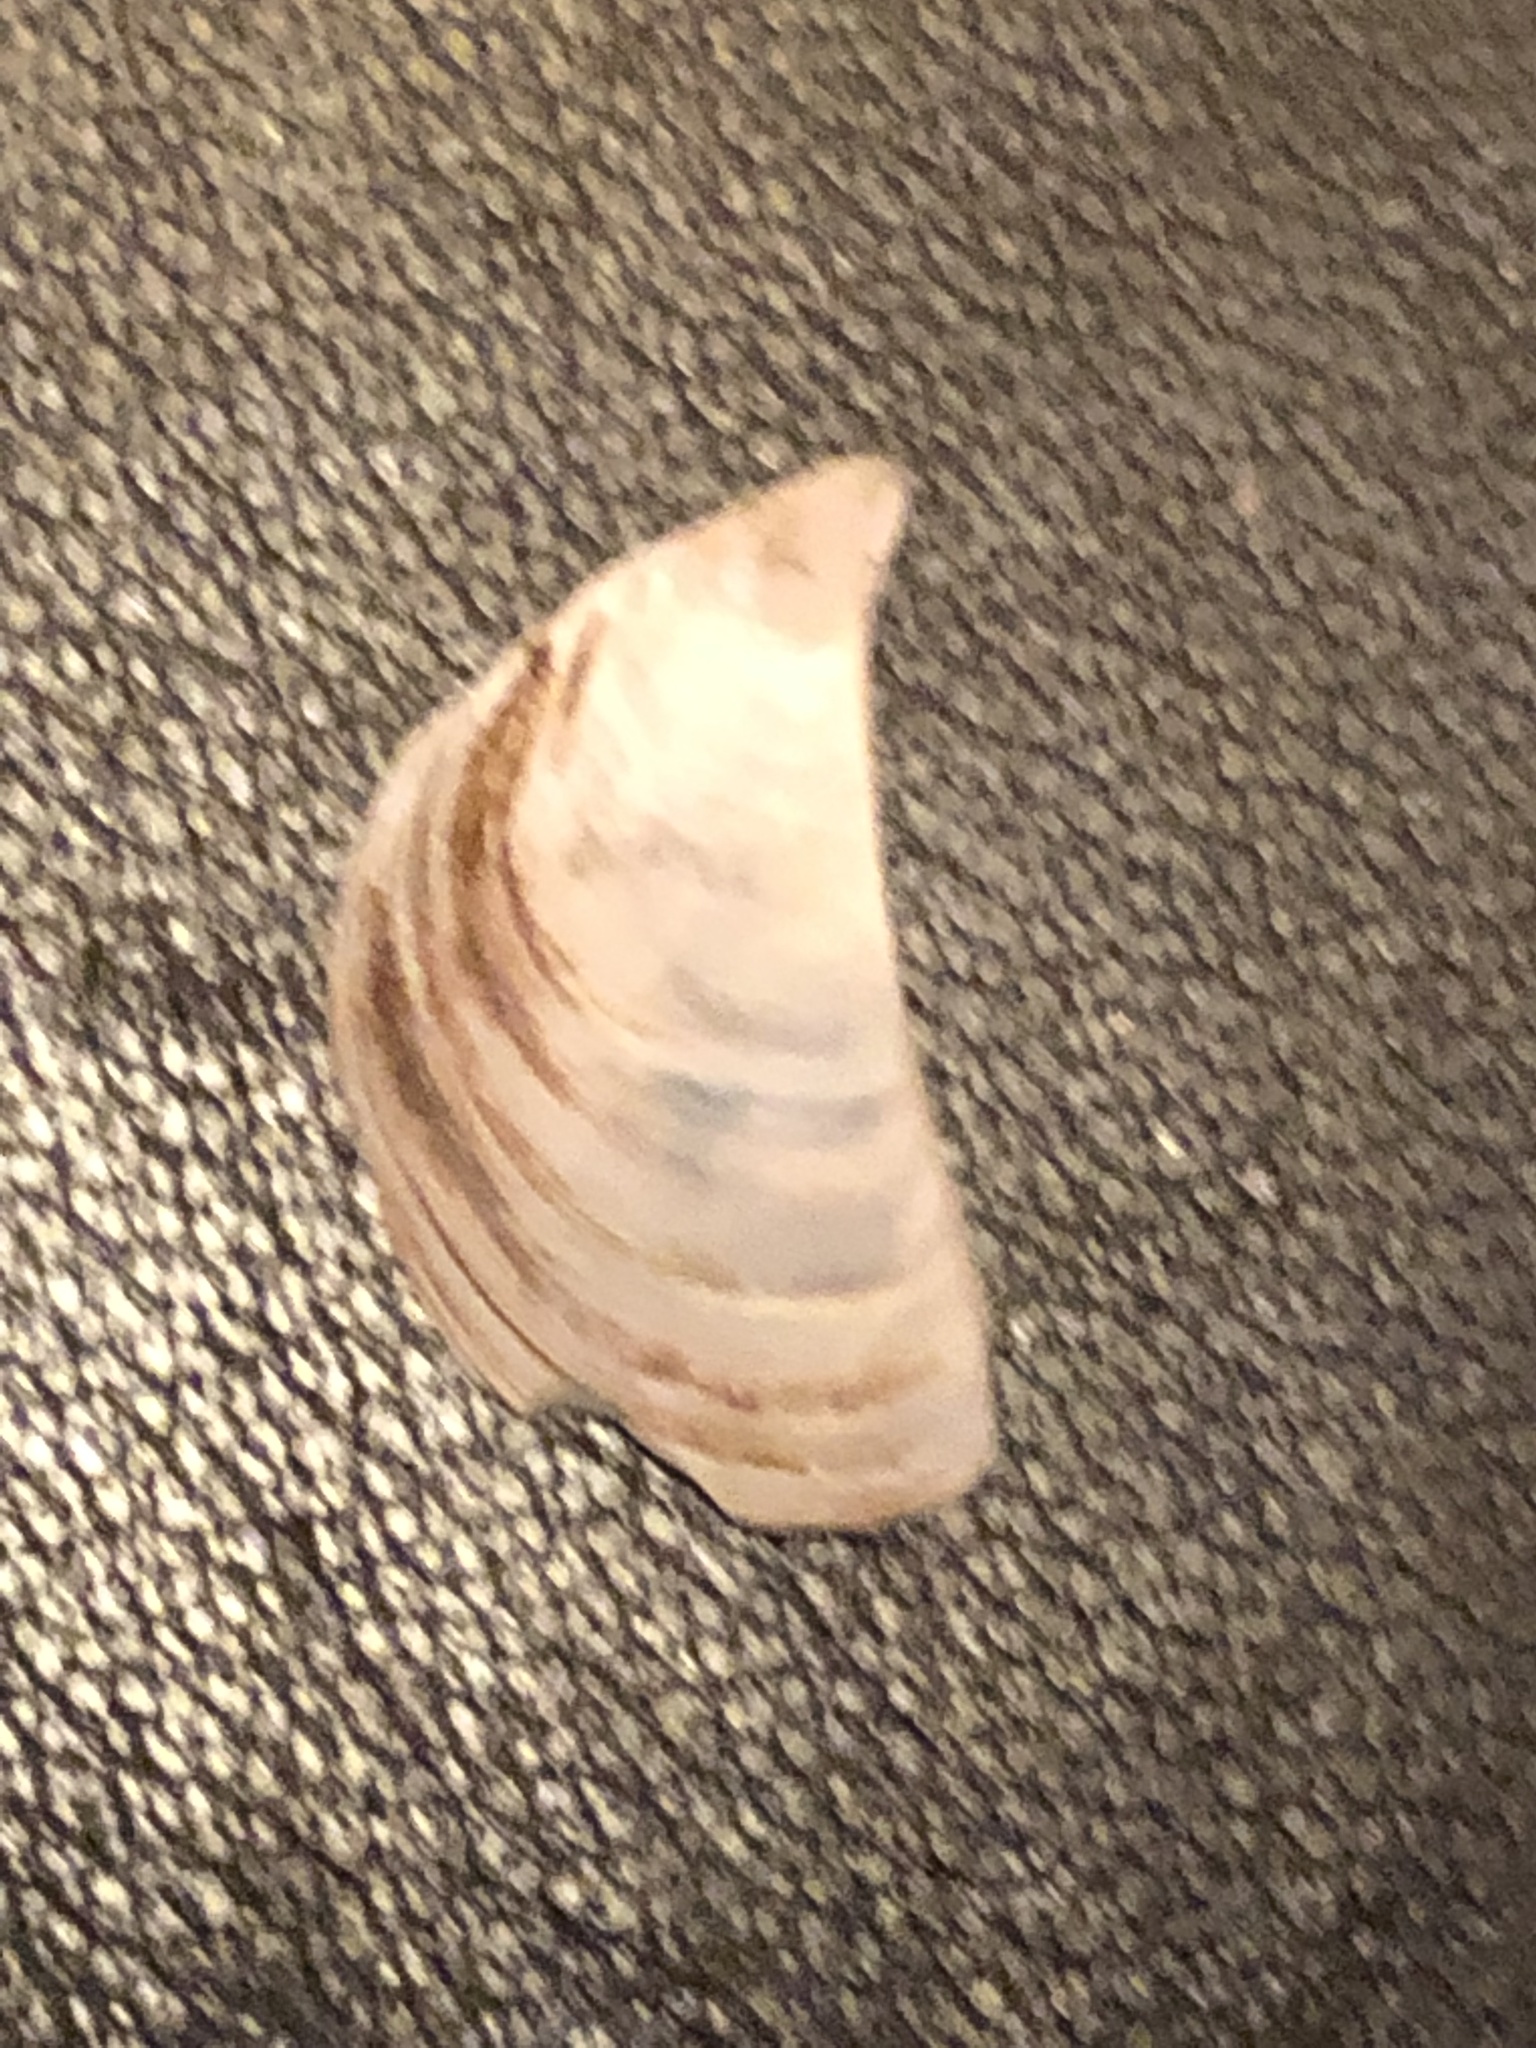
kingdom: Animalia
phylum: Mollusca
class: Bivalvia
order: Myida
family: Dreissenidae
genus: Dreissena
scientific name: Dreissena polymorpha
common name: Zebra mussel
